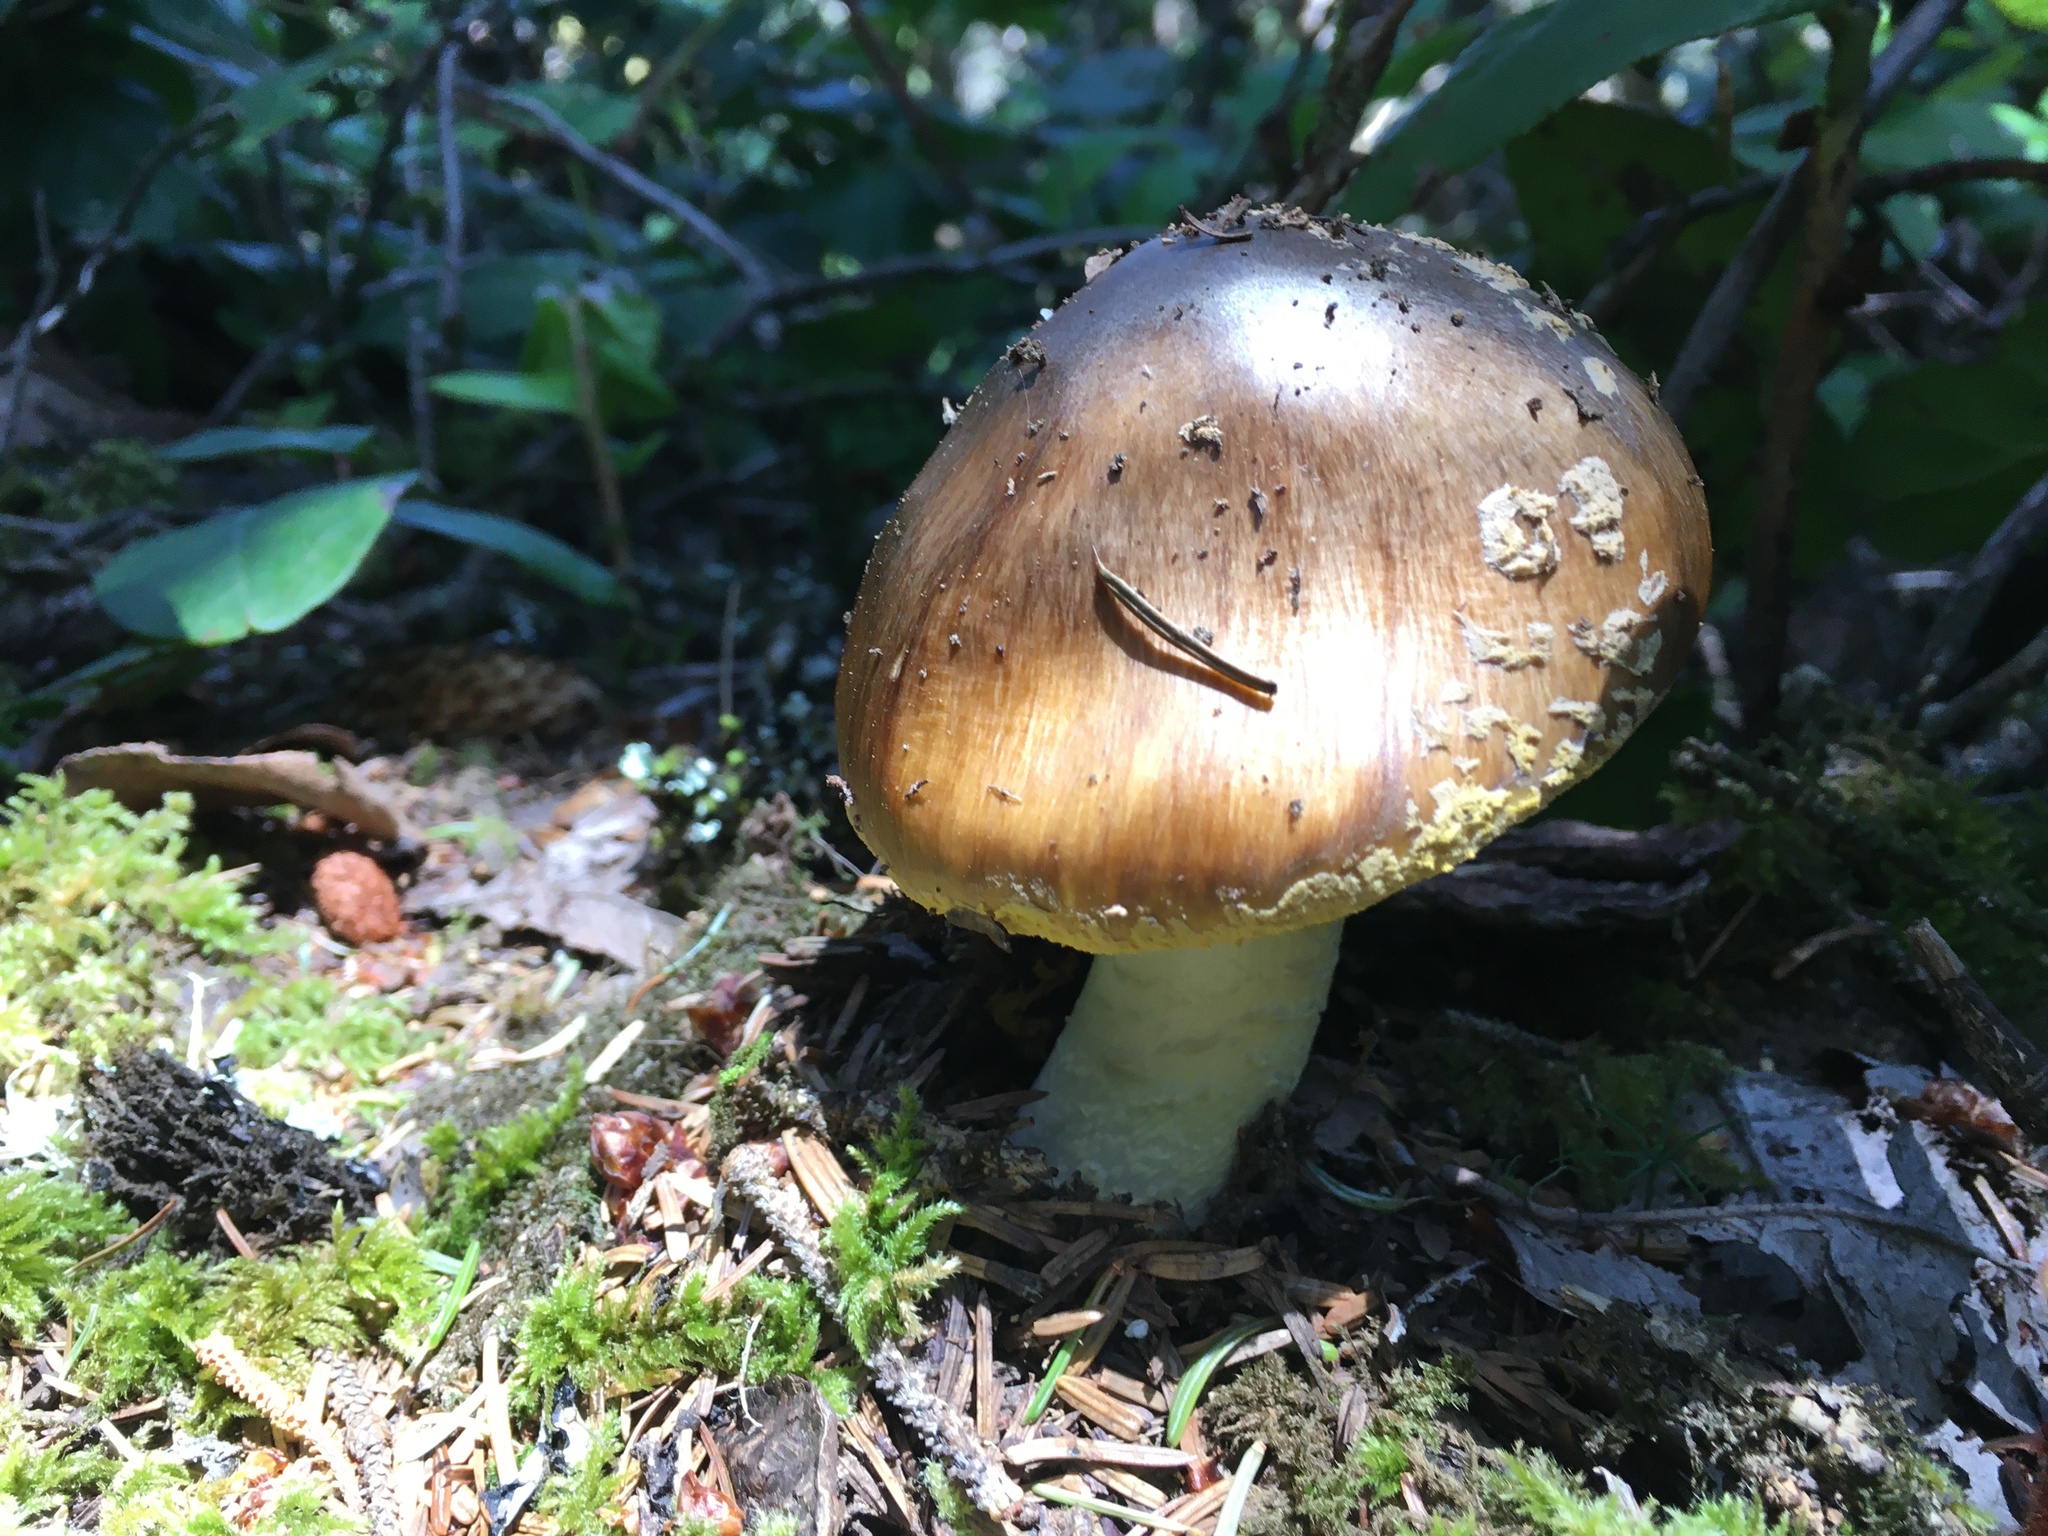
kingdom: Fungi
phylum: Basidiomycota
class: Agaricomycetes
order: Agaricales
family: Amanitaceae
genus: Amanita
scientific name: Amanita augusta
